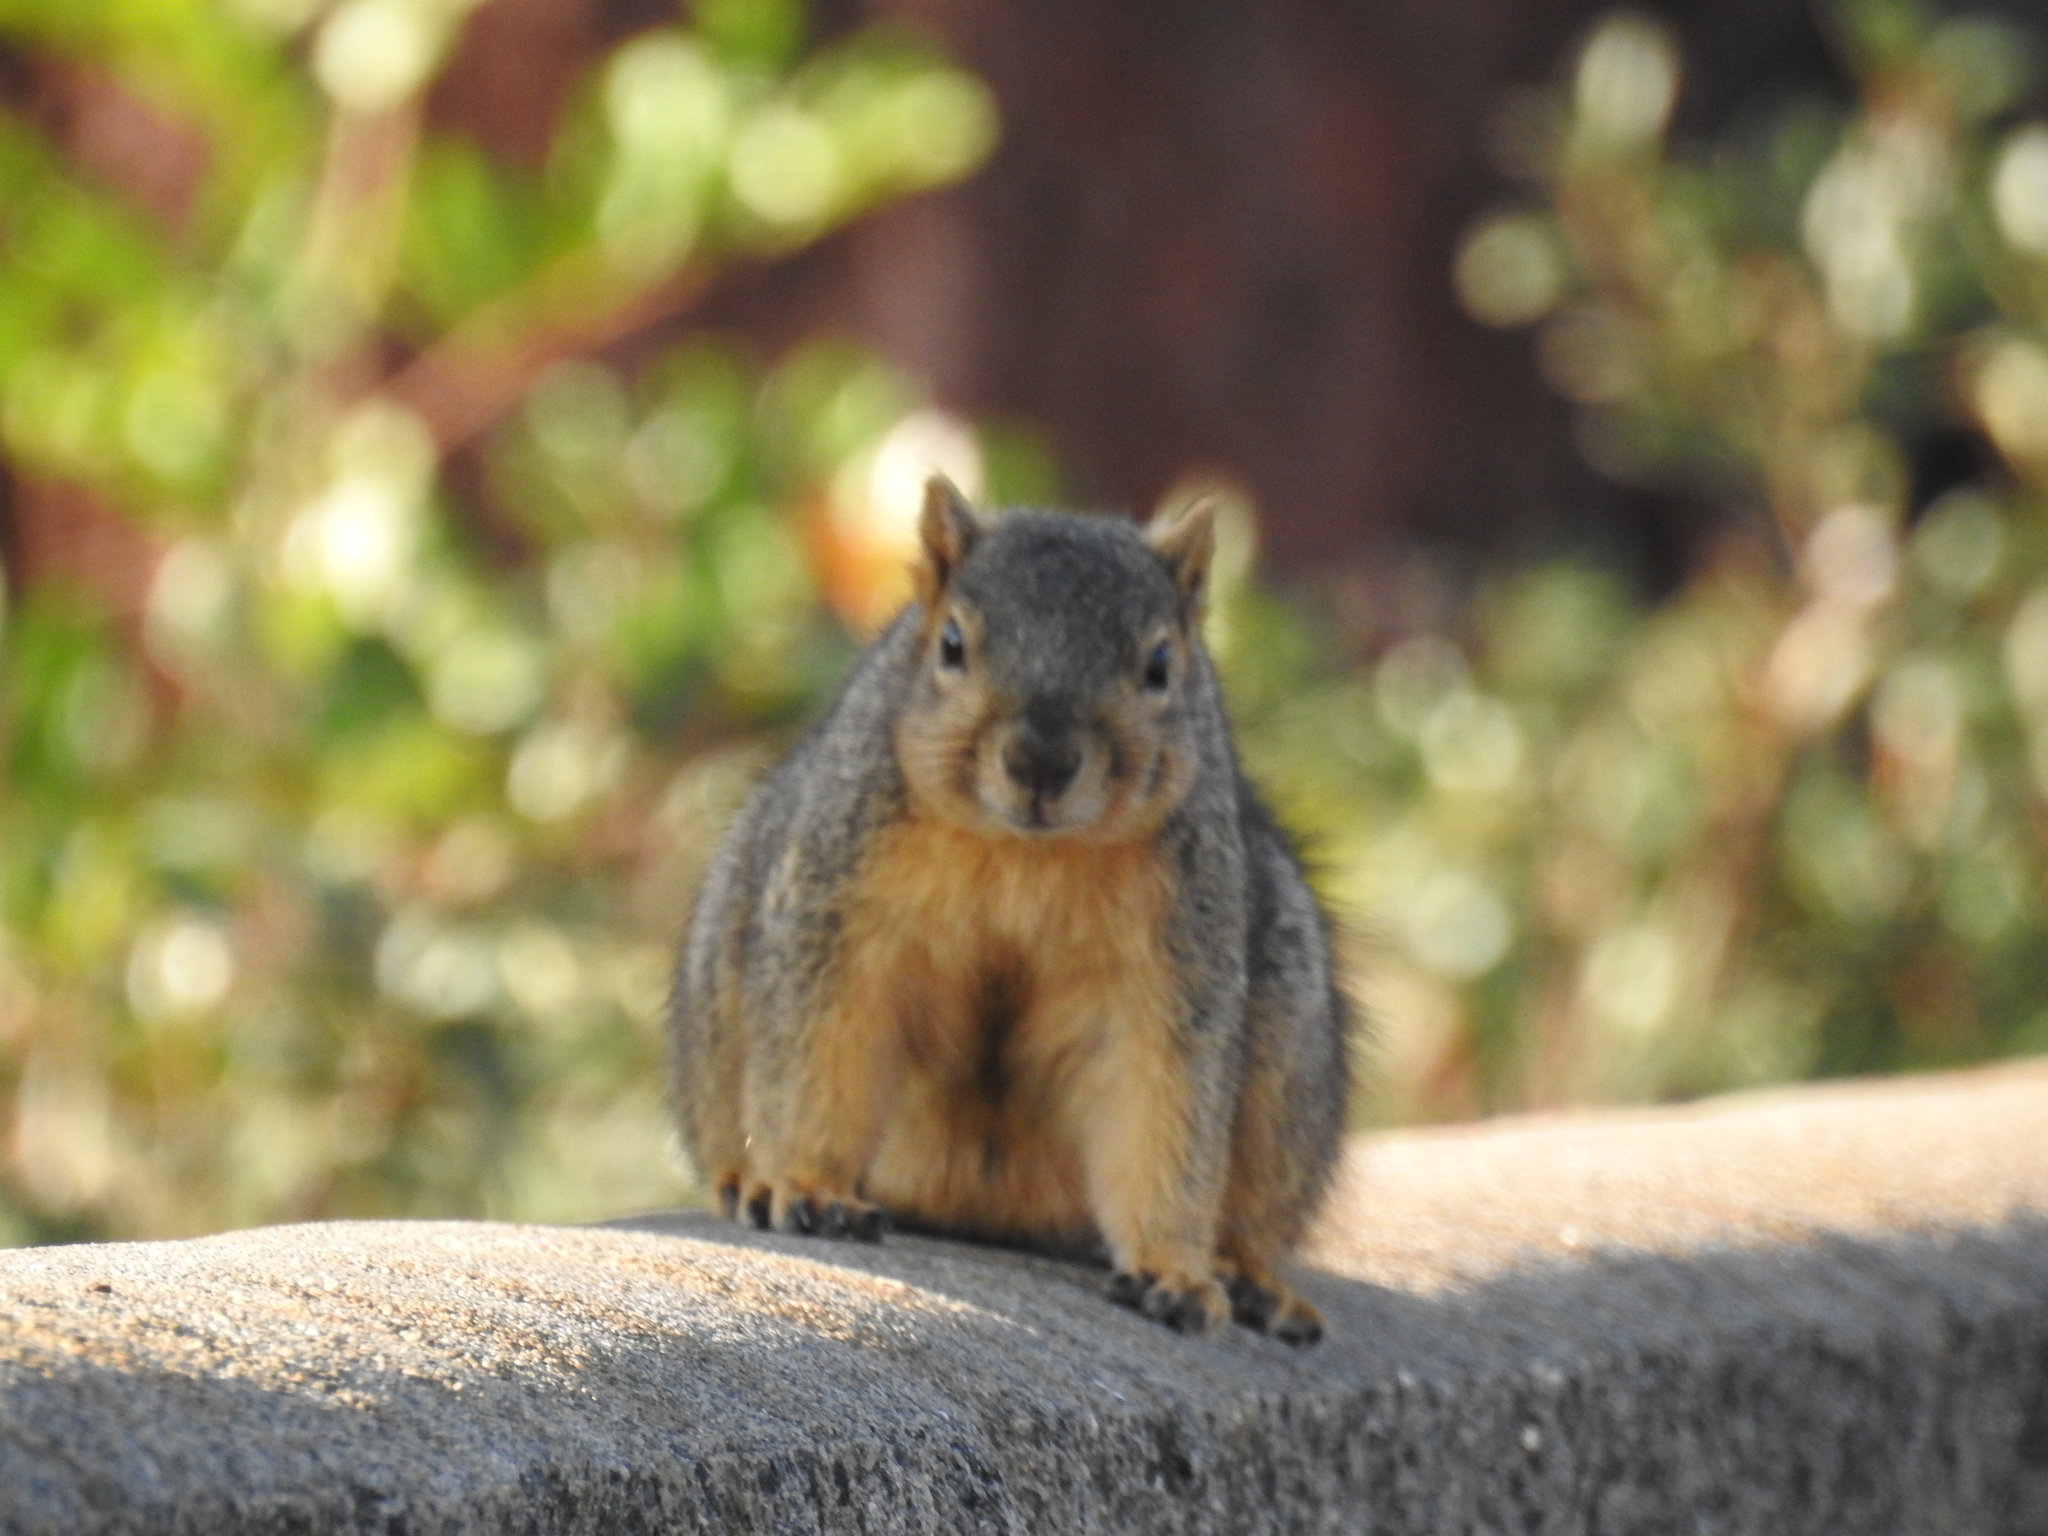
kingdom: Animalia
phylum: Chordata
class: Mammalia
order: Rodentia
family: Sciuridae
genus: Sciurus
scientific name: Sciurus niger
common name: Fox squirrel
